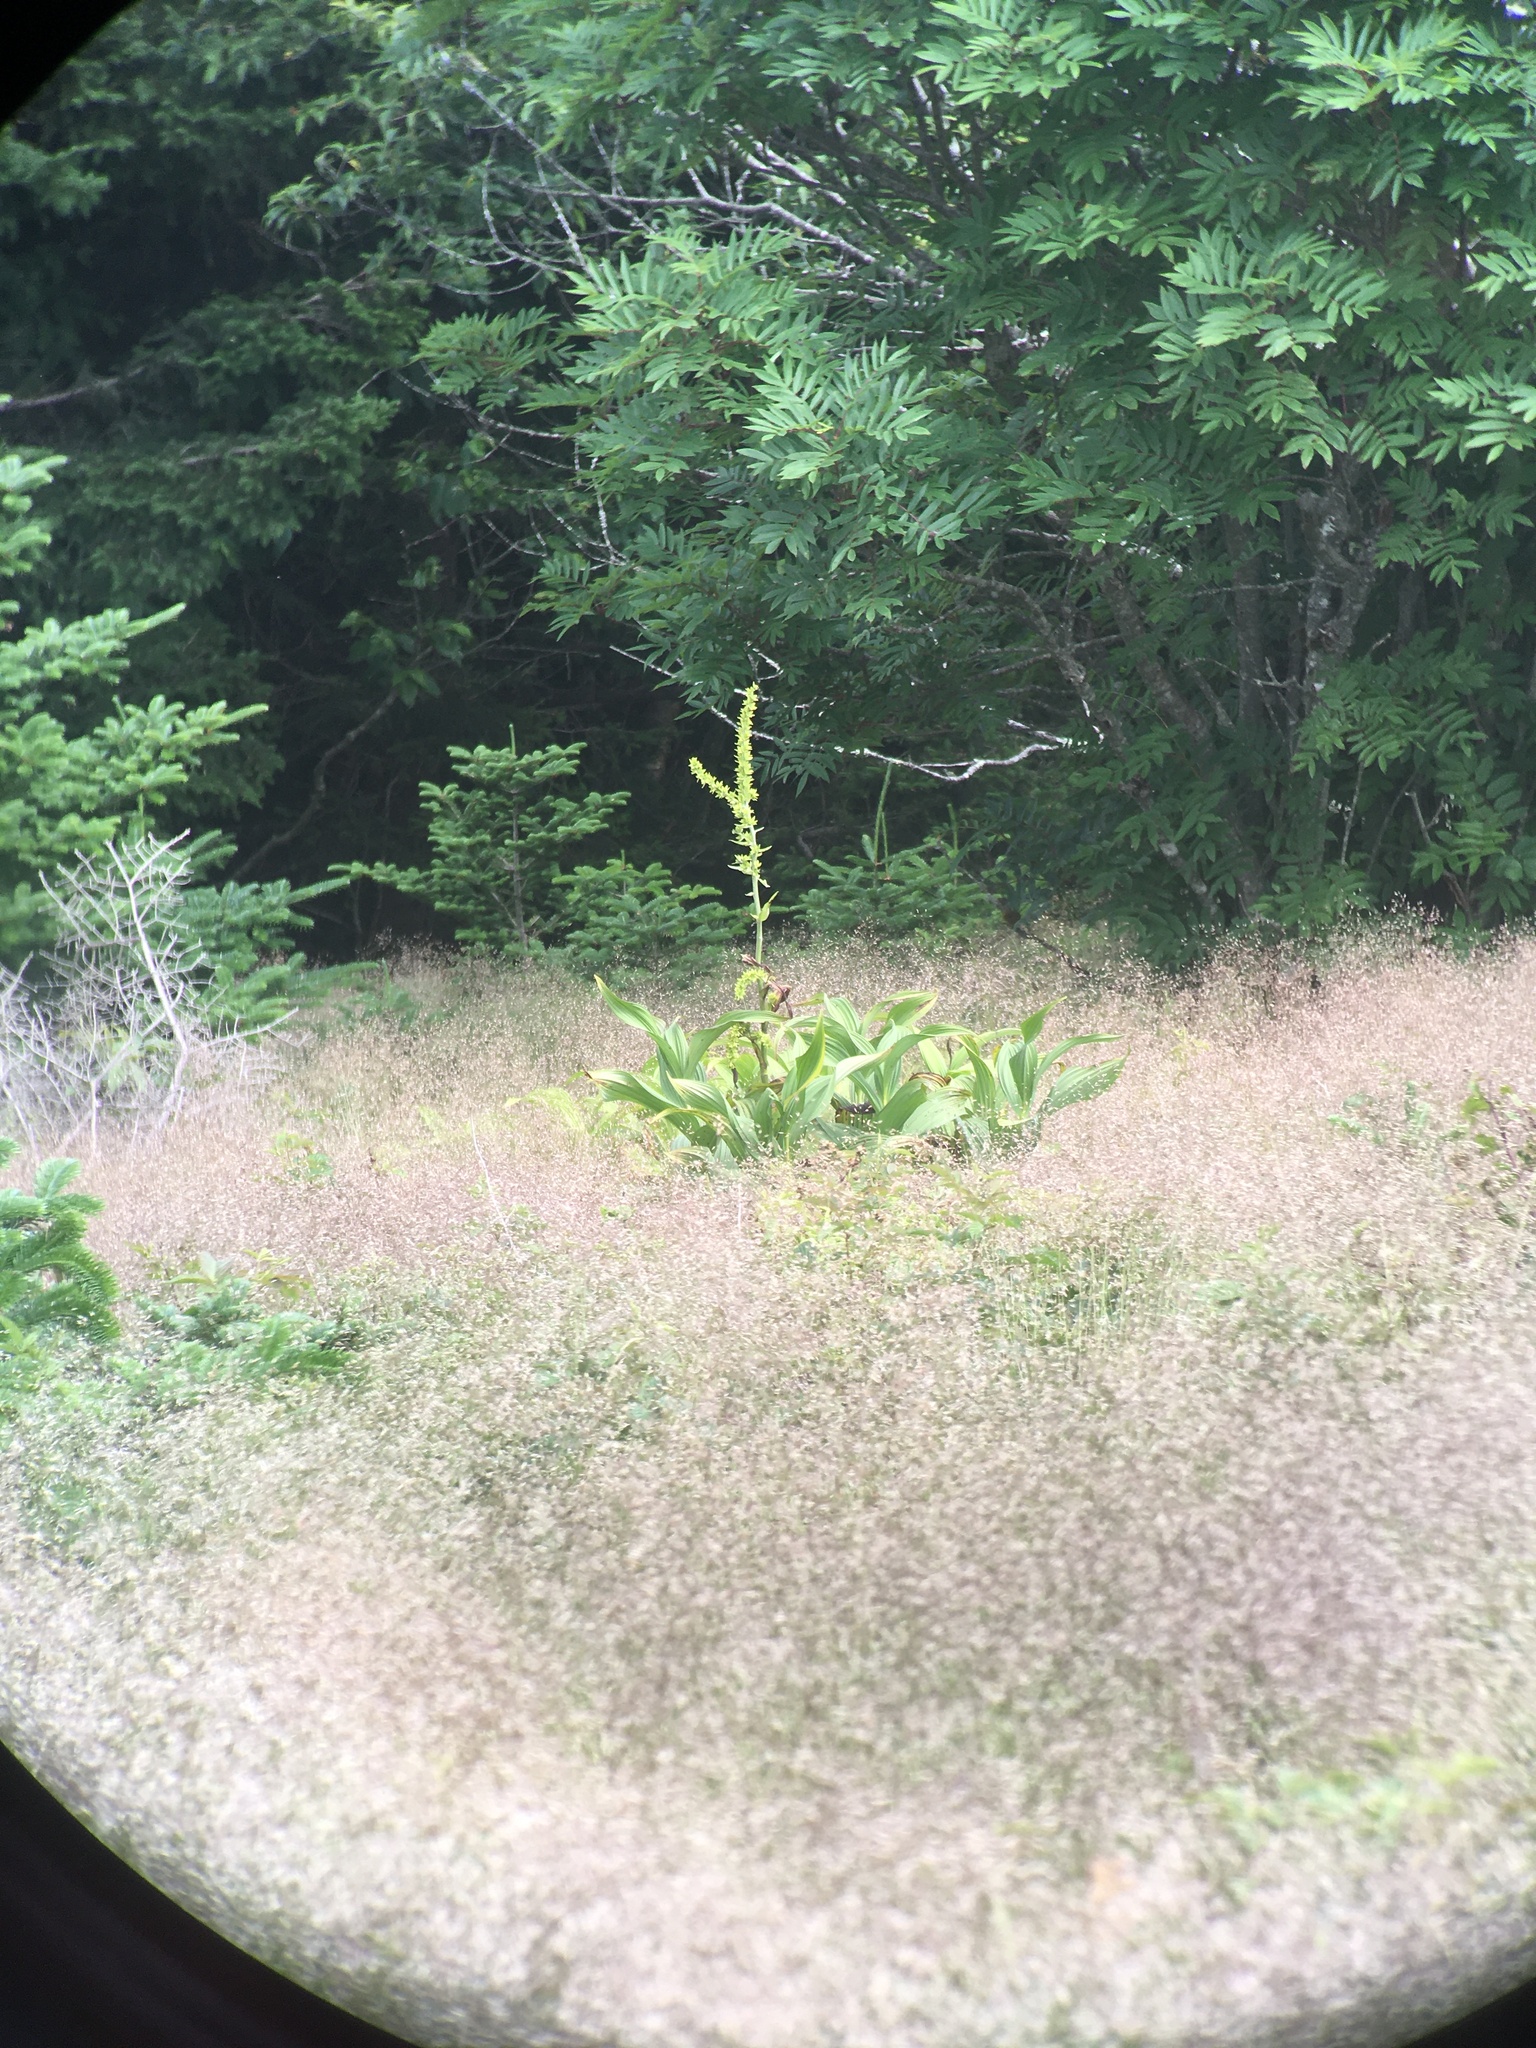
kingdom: Plantae
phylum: Tracheophyta
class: Liliopsida
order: Liliales
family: Melanthiaceae
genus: Veratrum
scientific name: Veratrum viride
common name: American false hellebore
